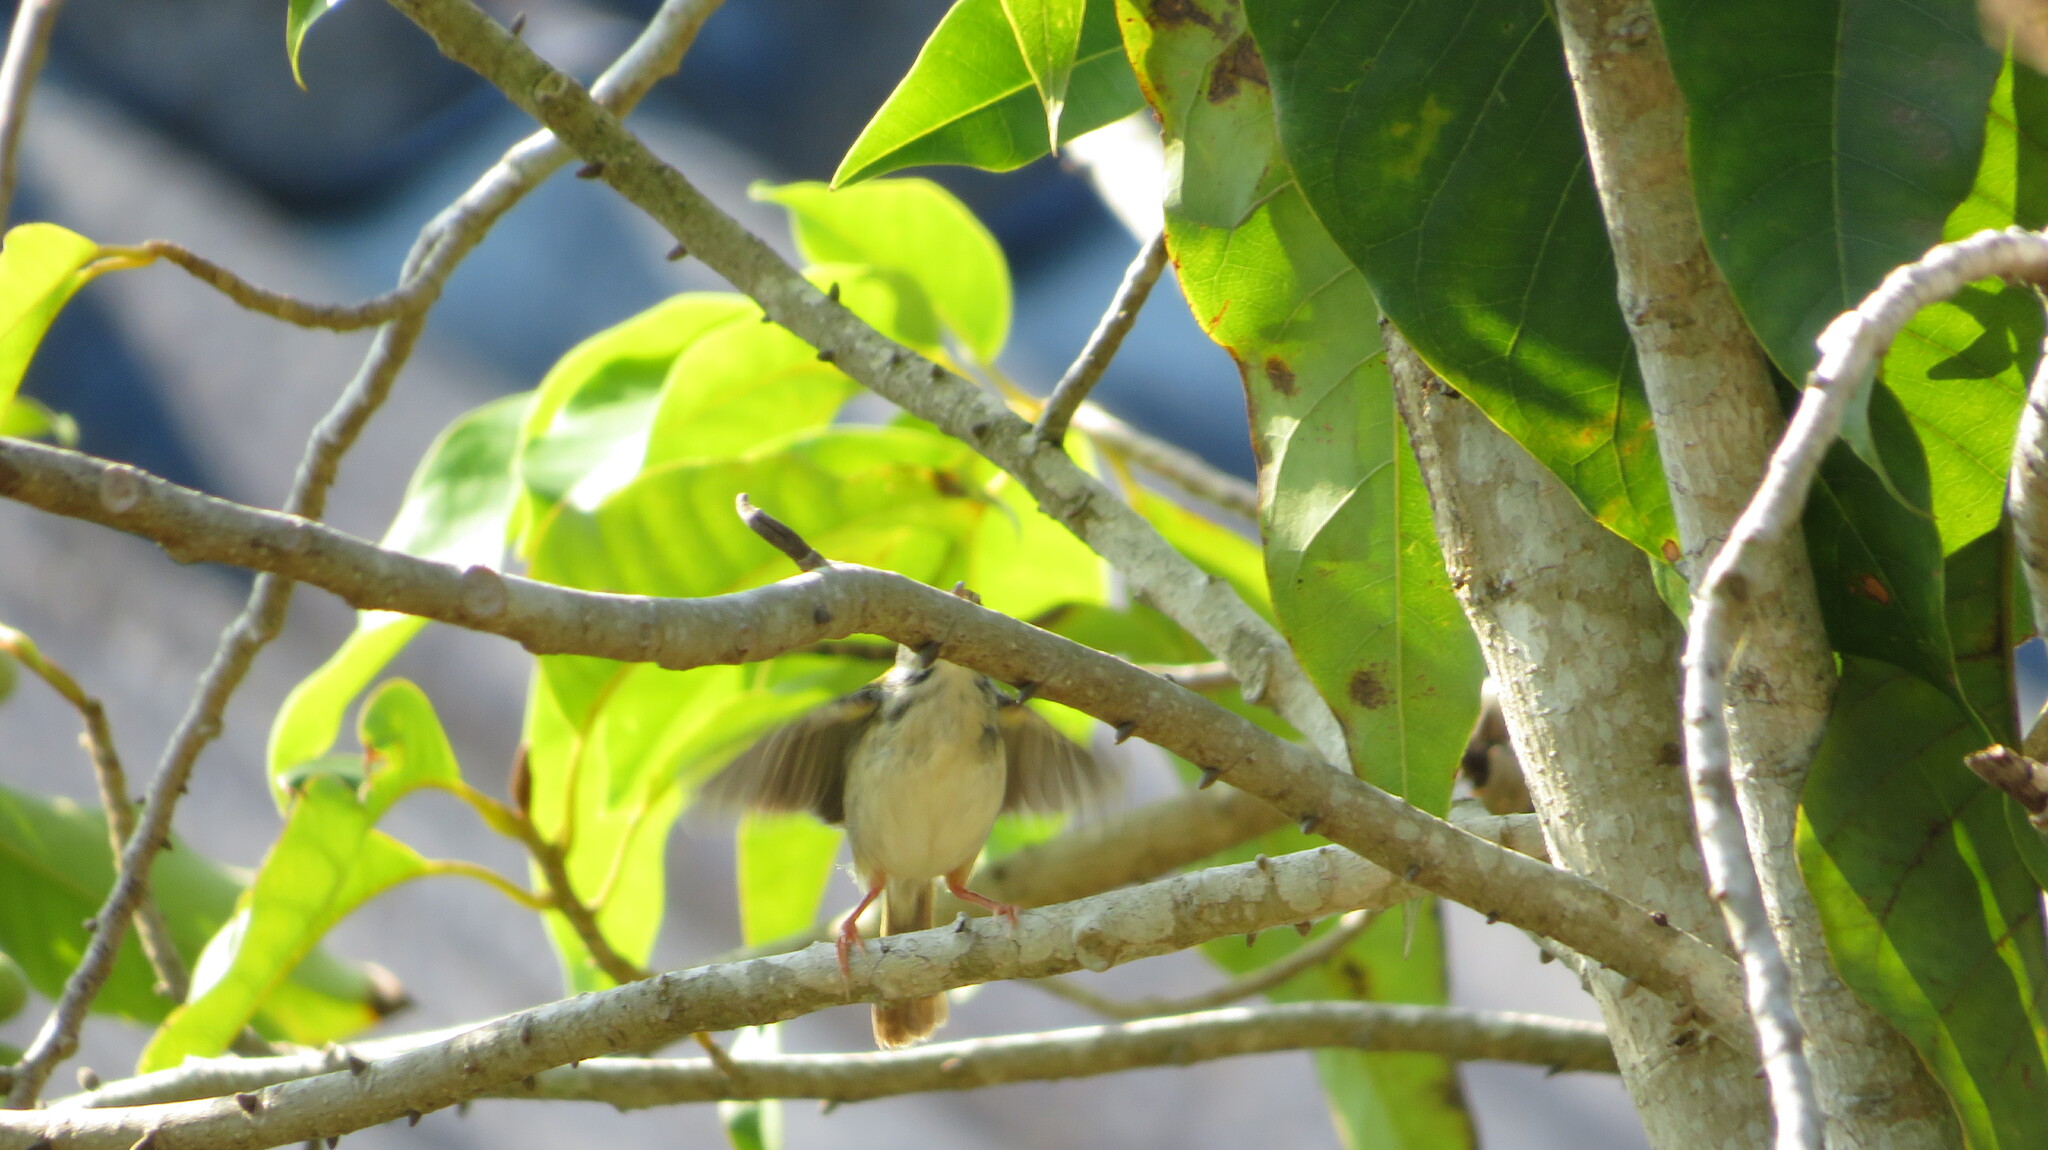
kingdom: Animalia
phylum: Chordata
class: Aves
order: Passeriformes
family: Cisticolidae
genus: Orthotomus
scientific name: Orthotomus sutorius
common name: Common tailorbird
